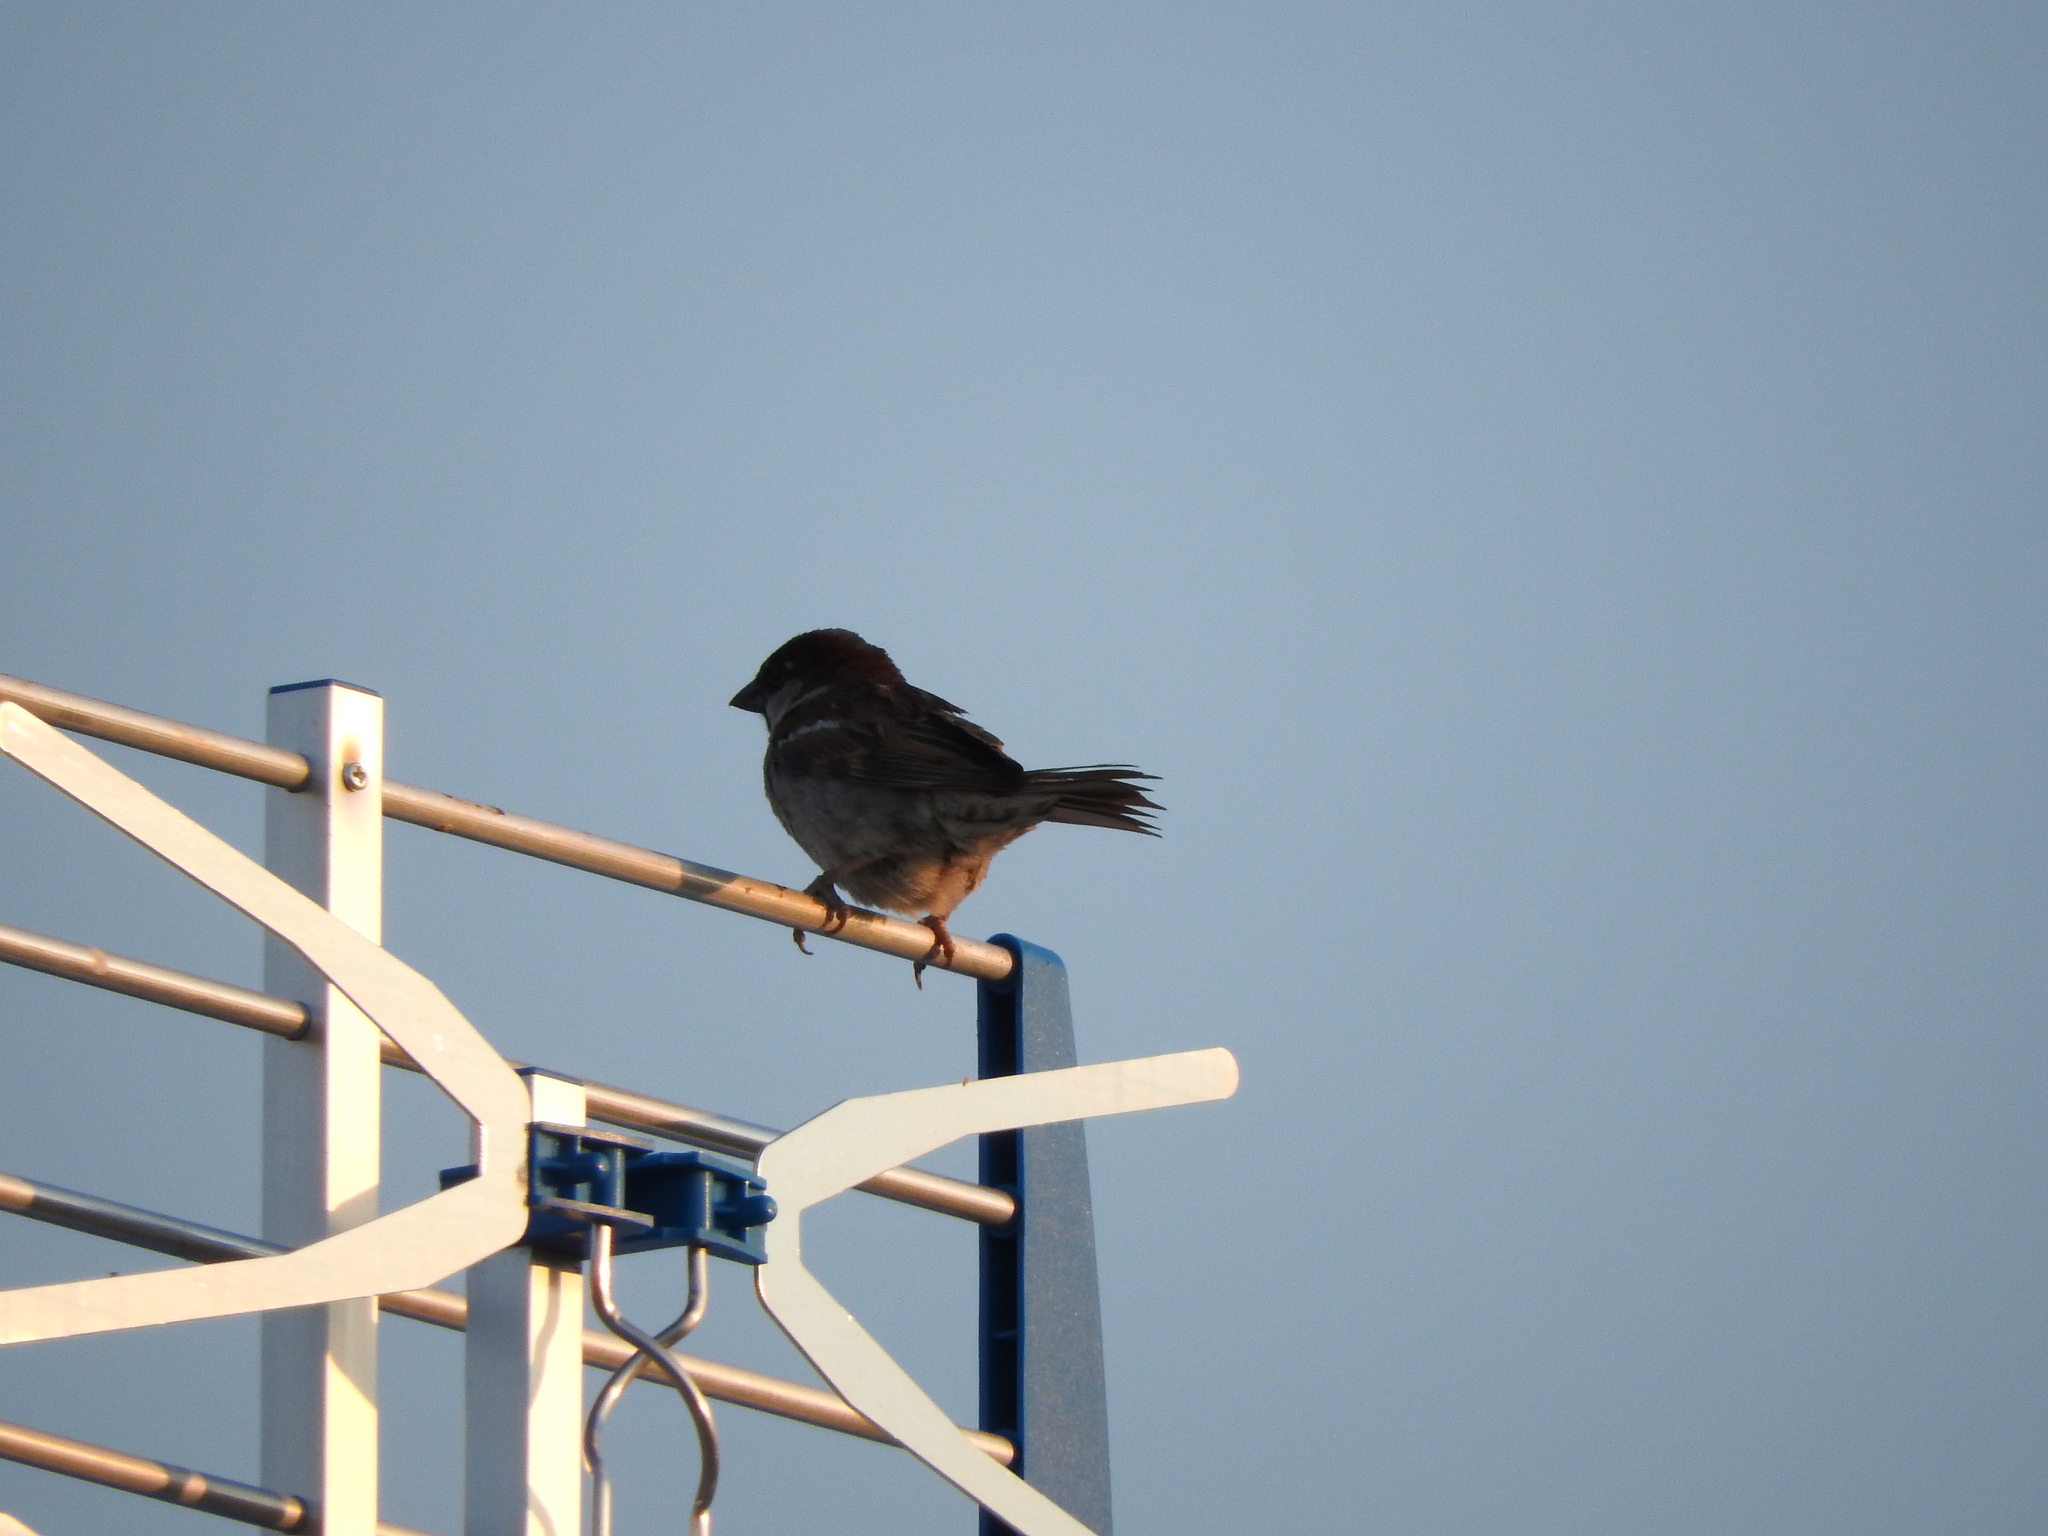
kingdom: Animalia
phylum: Chordata
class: Aves
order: Passeriformes
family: Passeridae
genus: Passer
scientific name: Passer domesticus
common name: House sparrow
